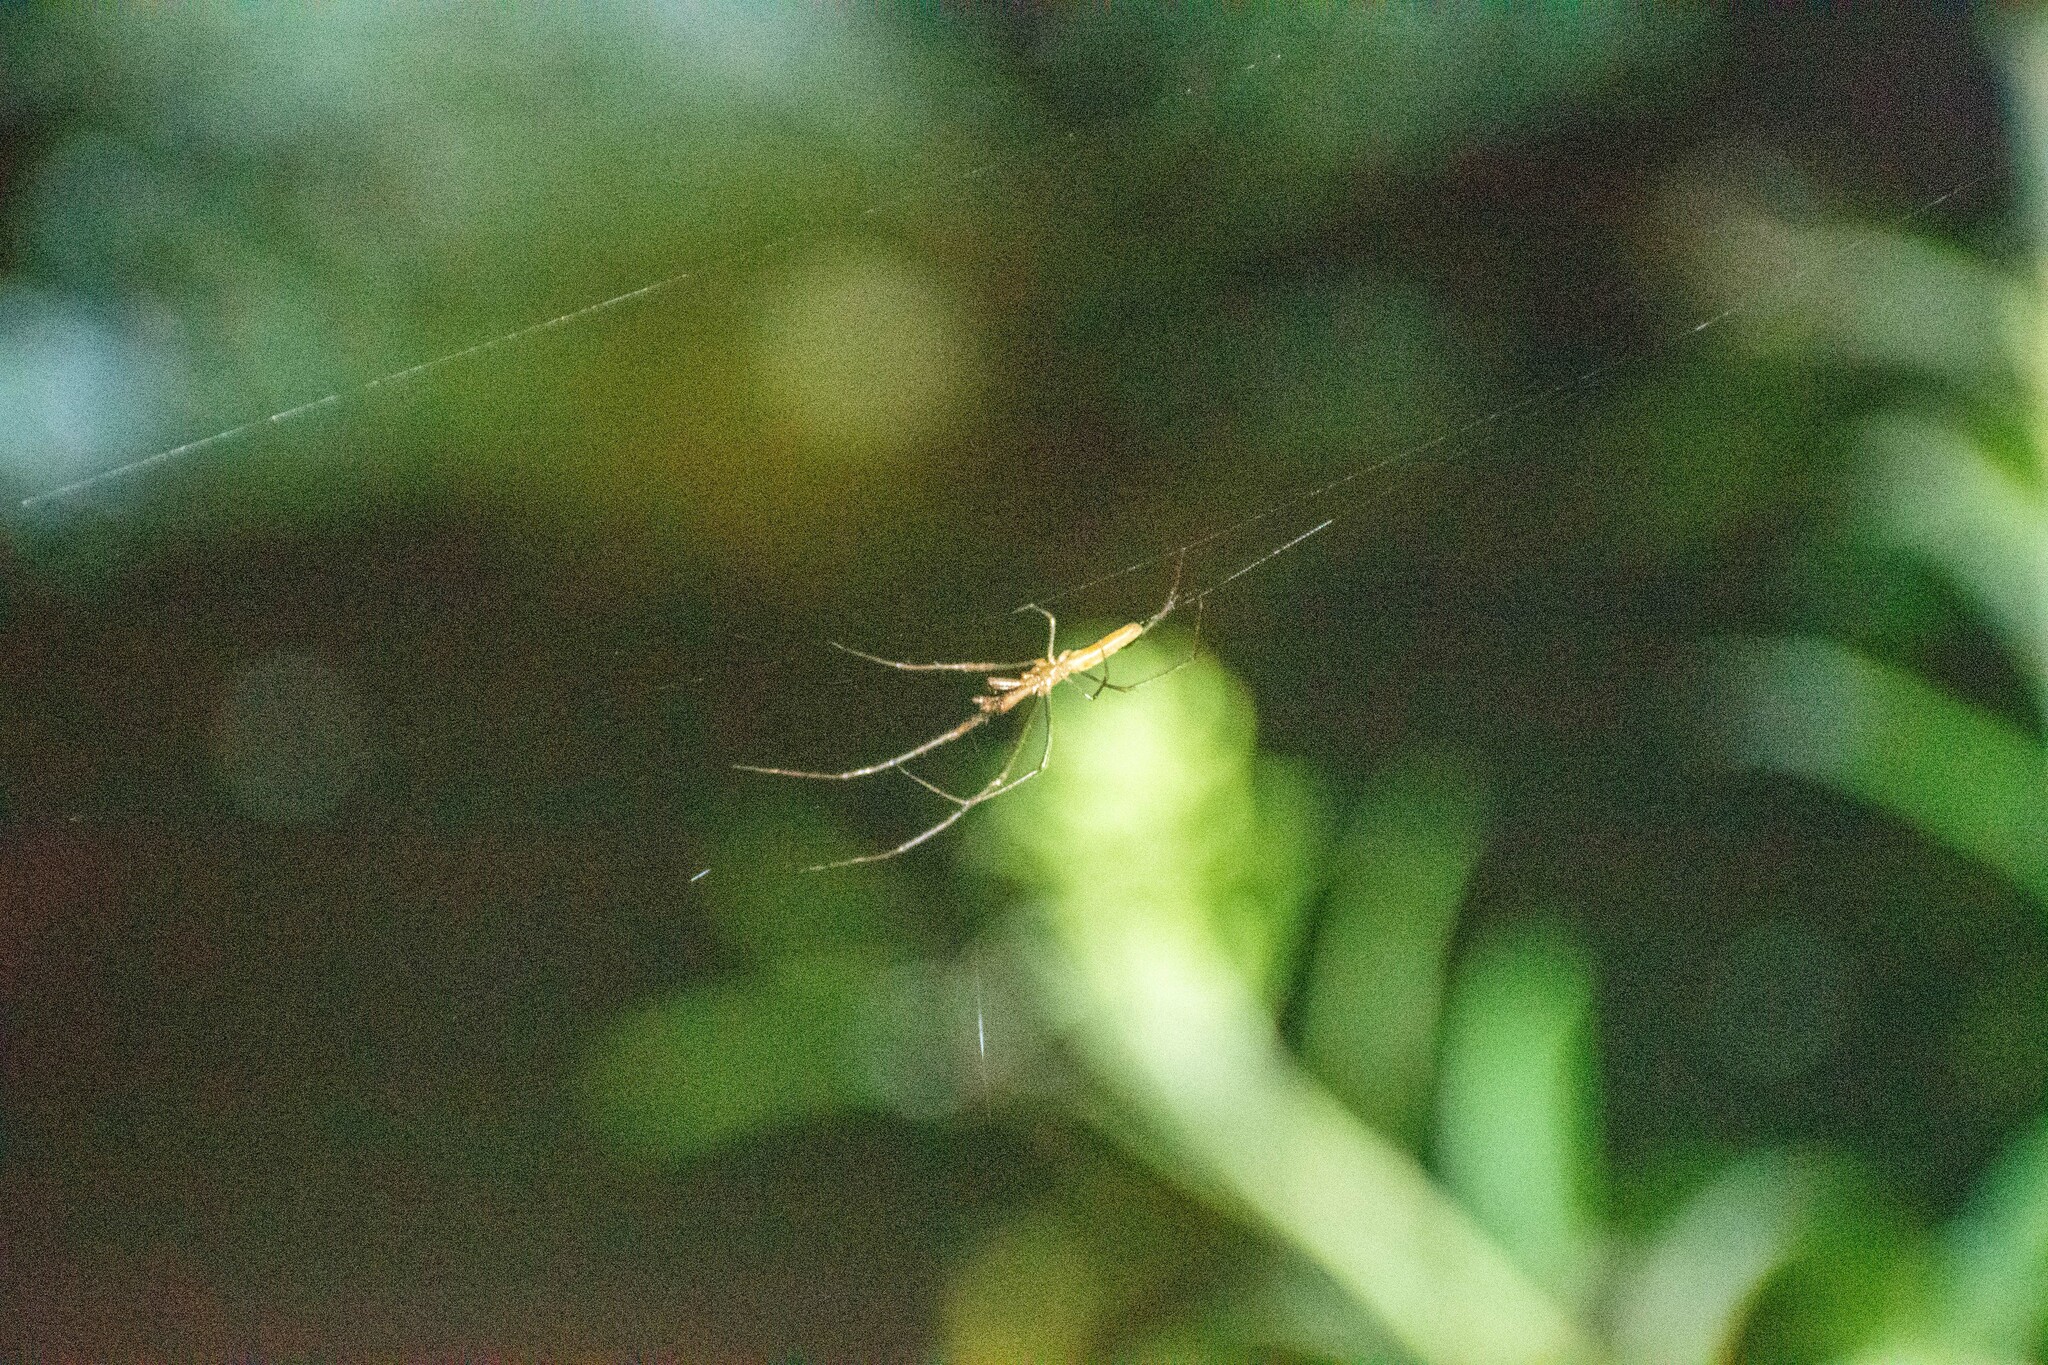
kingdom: Animalia
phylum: Arthropoda
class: Arachnida
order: Araneae
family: Tetragnathidae
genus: Tetragnatha
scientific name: Tetragnatha
